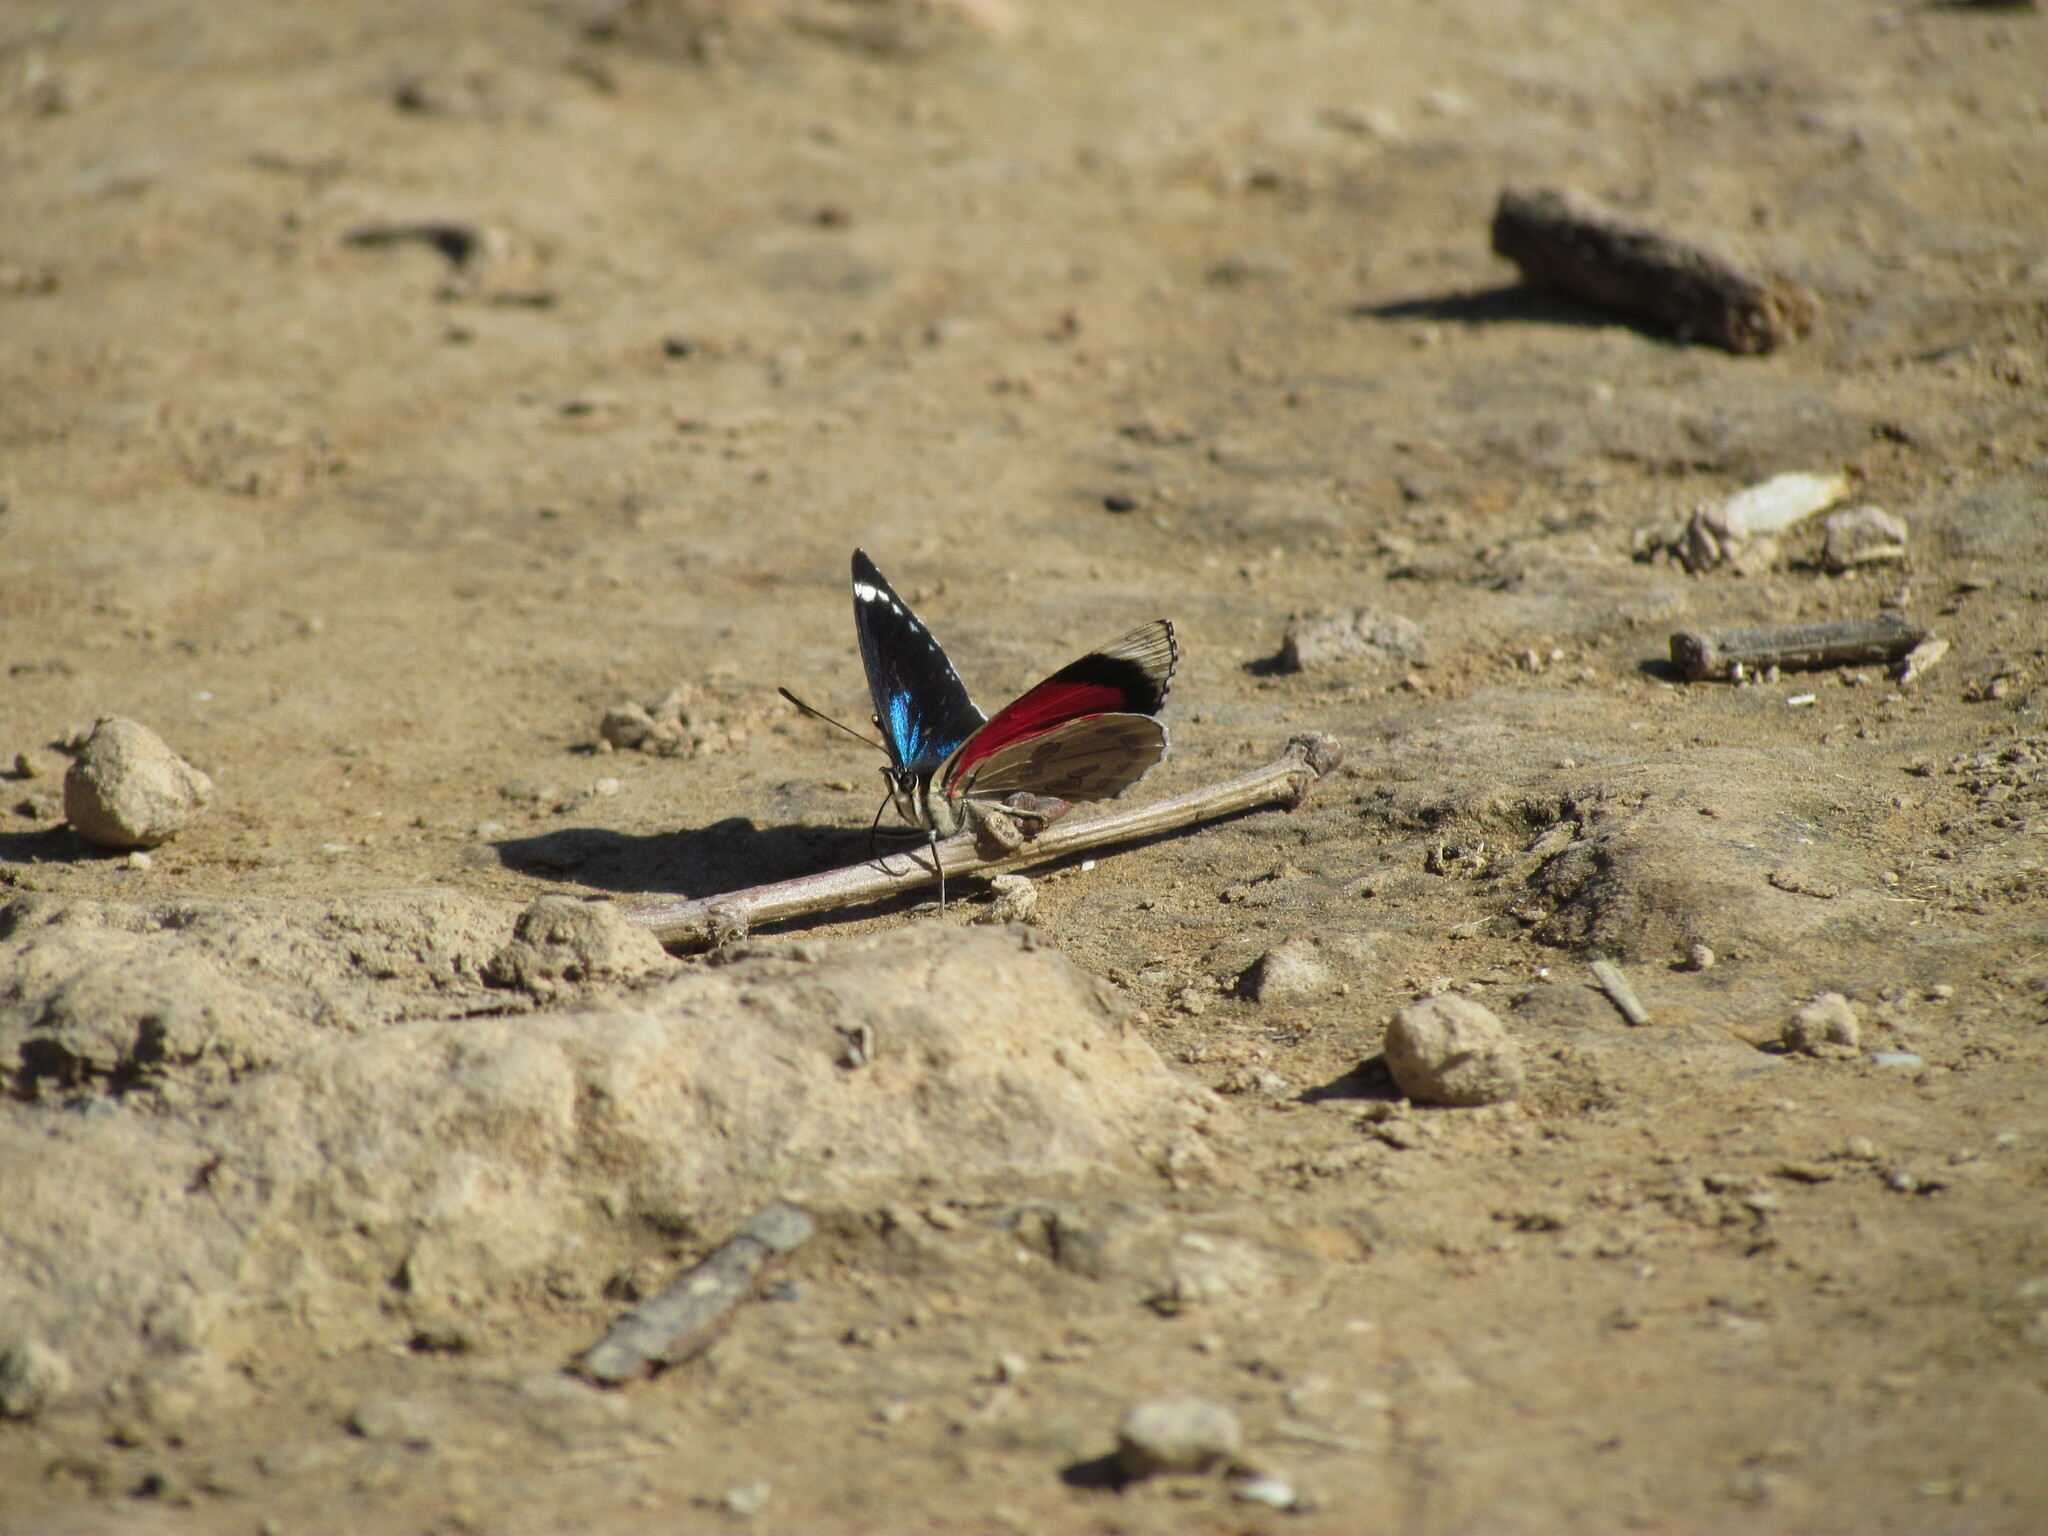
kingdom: Animalia
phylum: Arthropoda
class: Insecta
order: Lepidoptera
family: Nymphalidae
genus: Diaethria
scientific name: Diaethria candrena
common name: Number eighty
